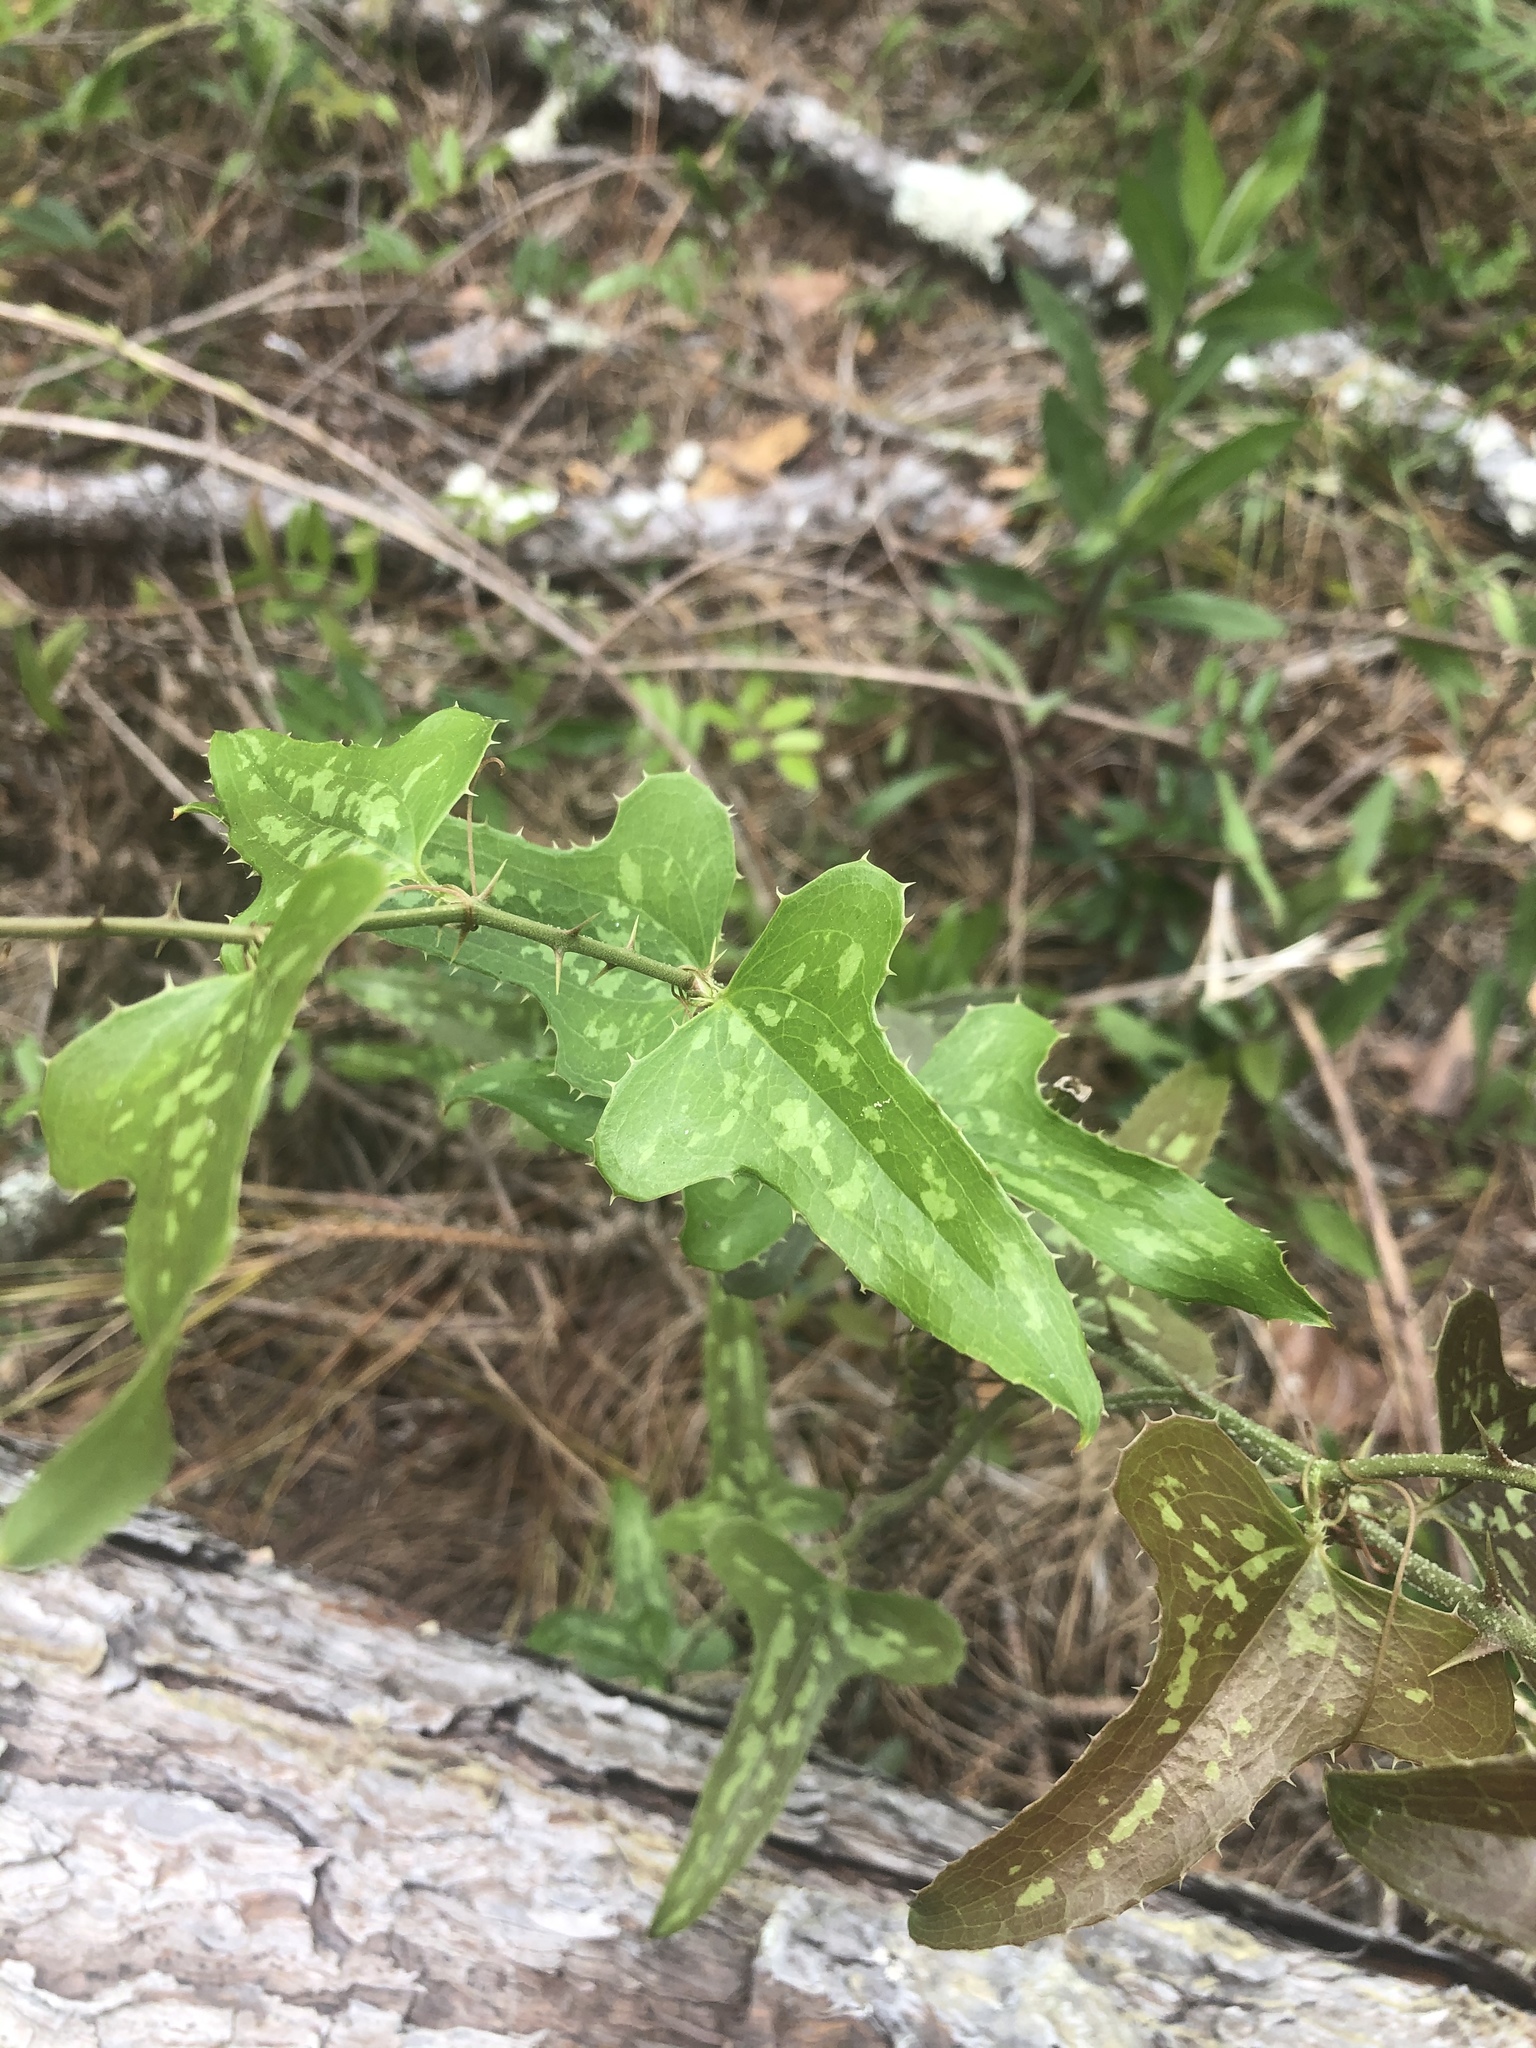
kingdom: Plantae
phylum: Tracheophyta
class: Liliopsida
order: Liliales
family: Smilacaceae
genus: Smilax
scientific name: Smilax bona-nox
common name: Catbrier
